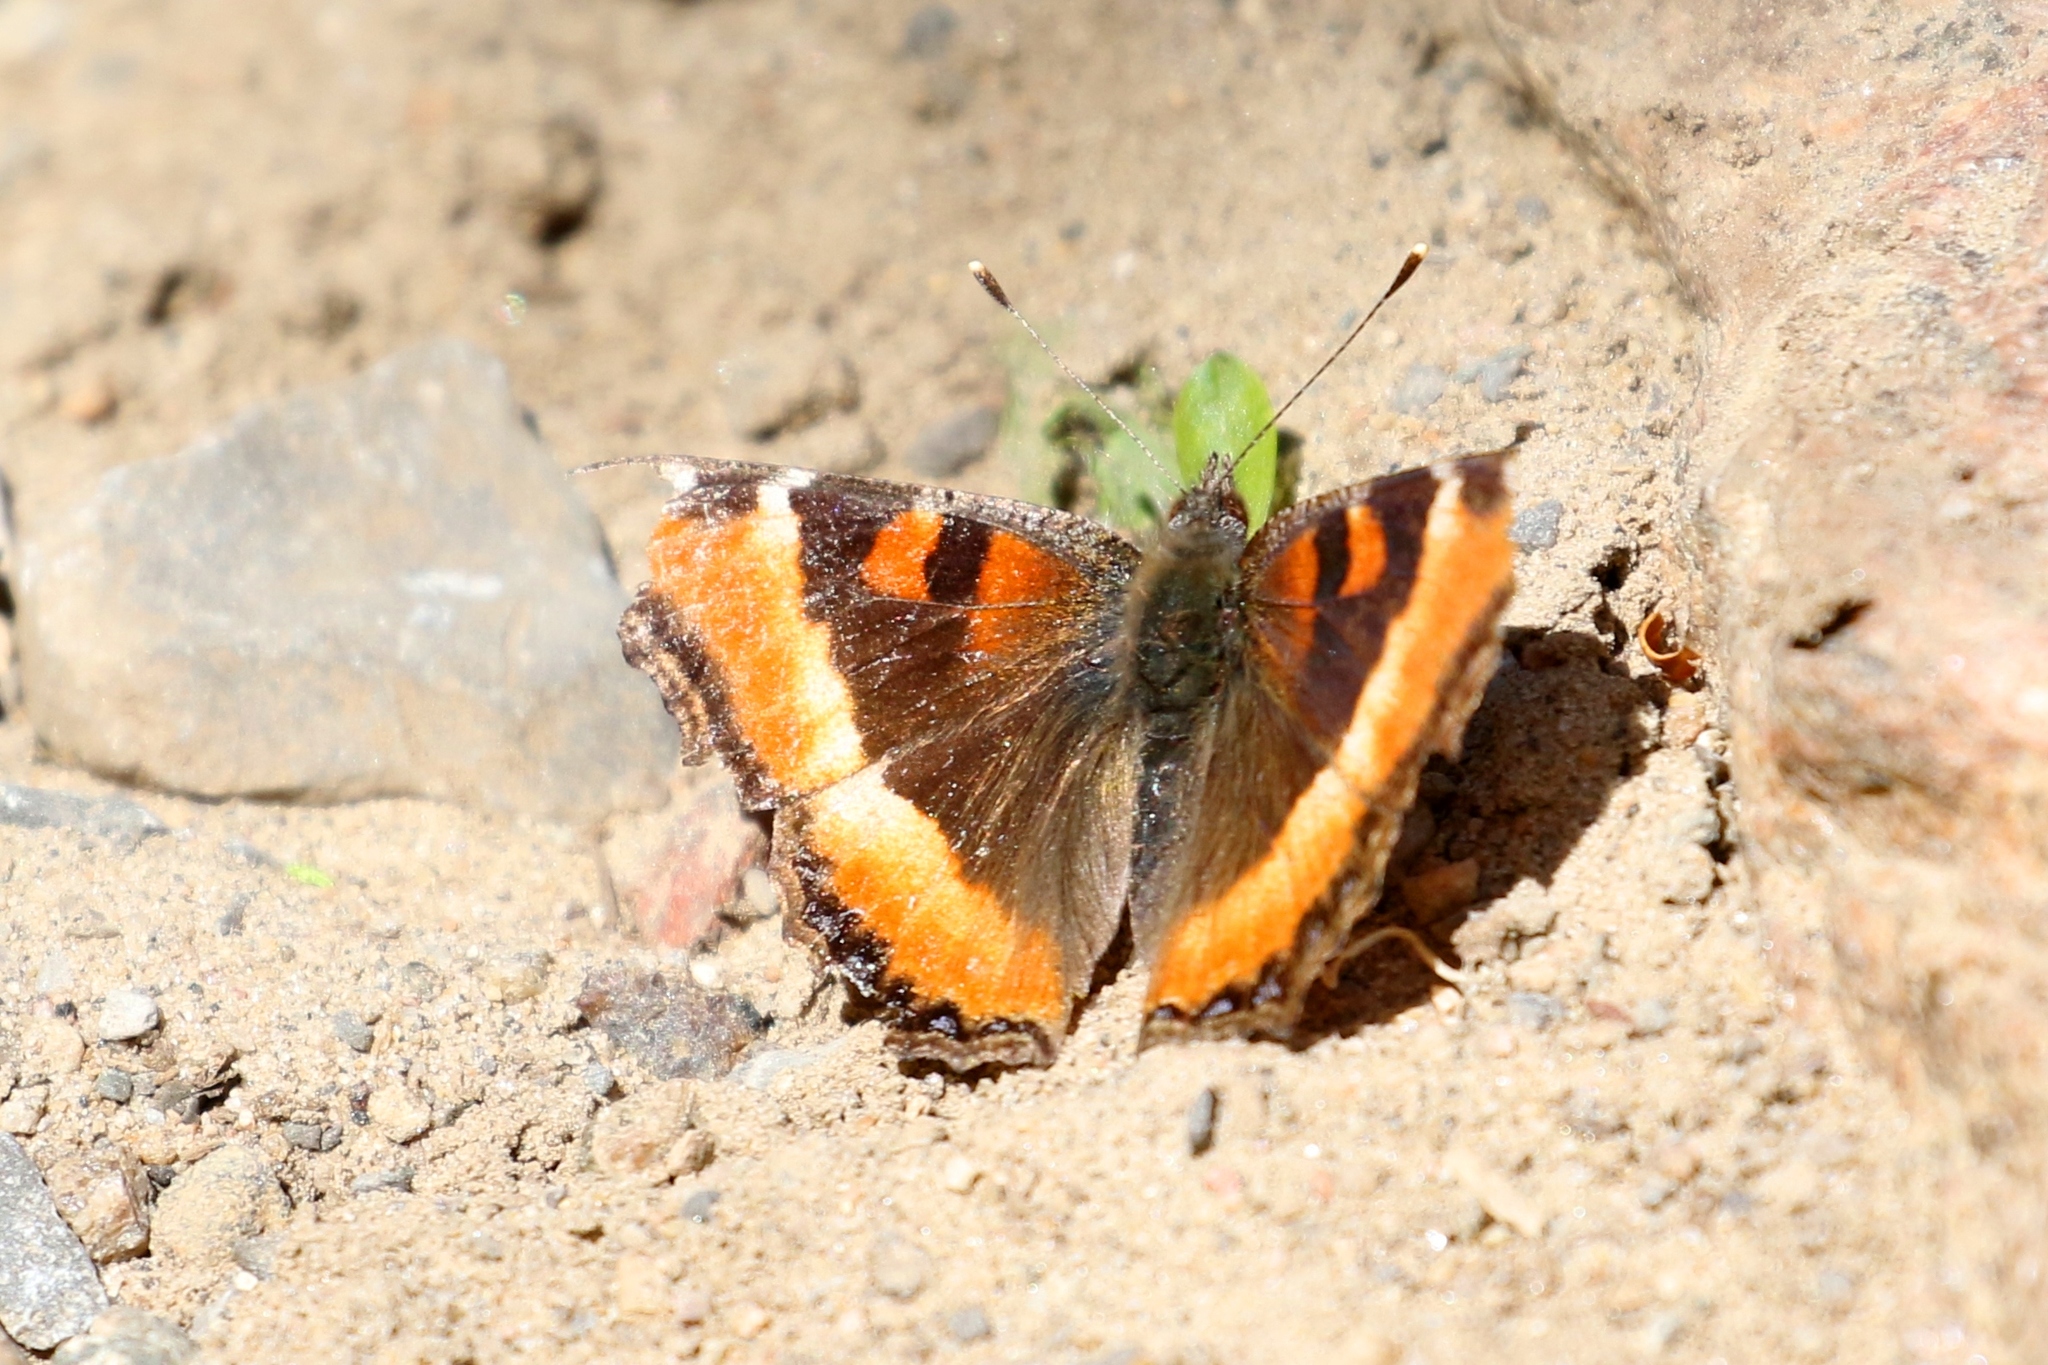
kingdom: Animalia
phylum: Arthropoda
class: Insecta
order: Lepidoptera
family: Nymphalidae
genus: Aglais
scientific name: Aglais milberti
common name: Milbert's tortoiseshell
